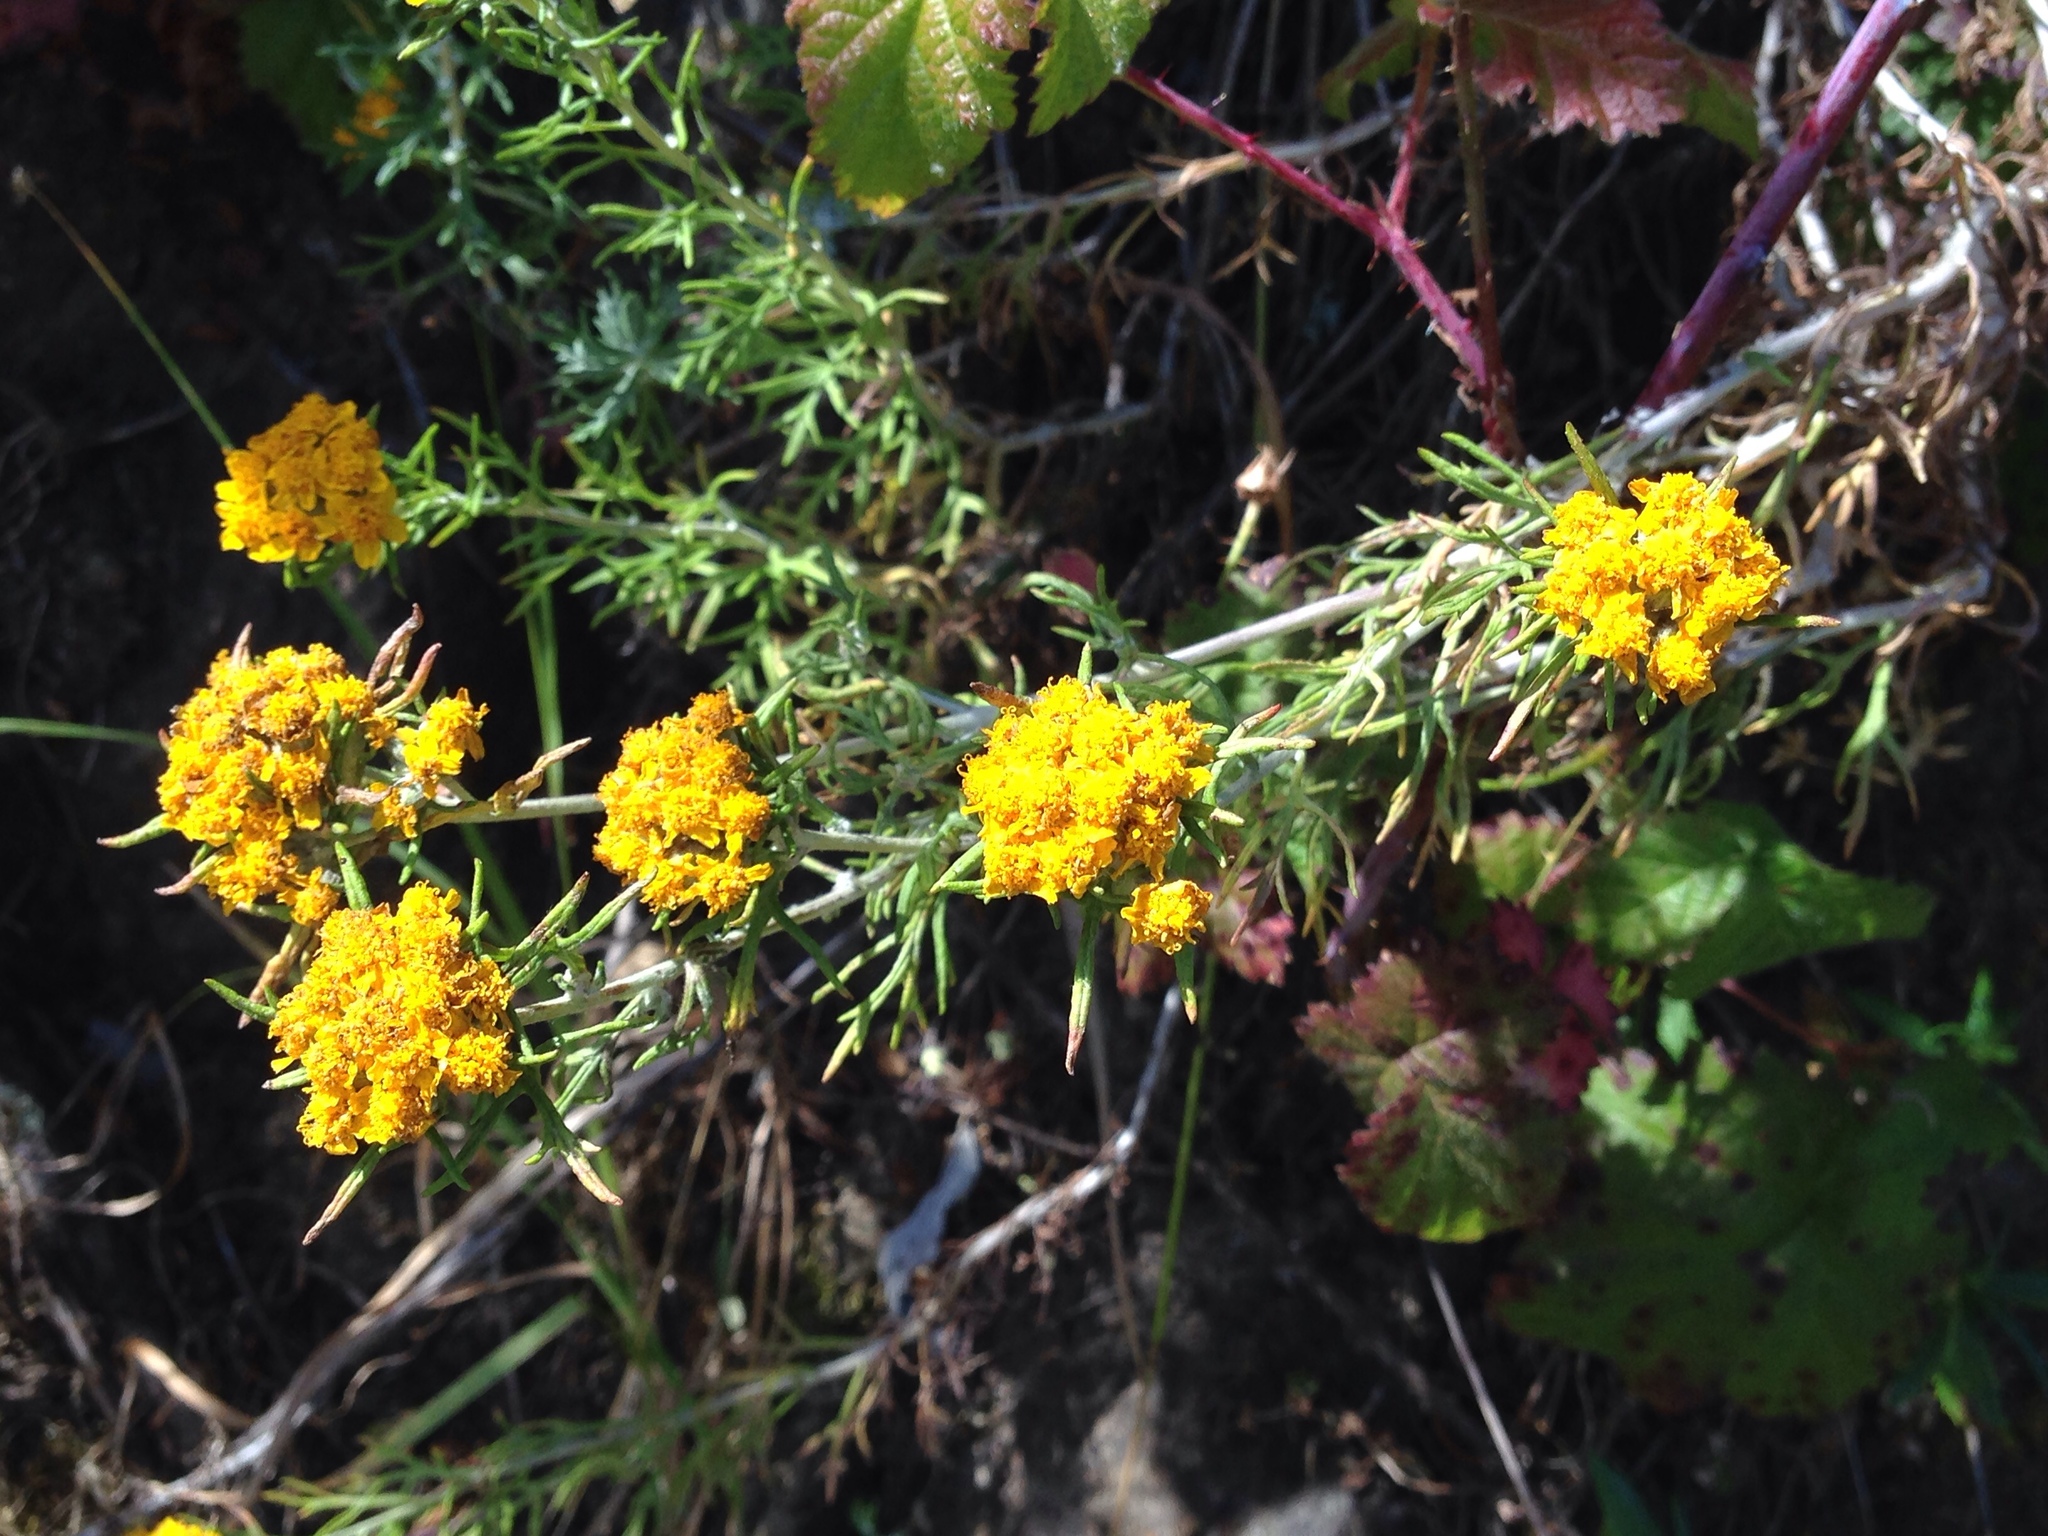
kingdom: Plantae
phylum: Tracheophyta
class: Magnoliopsida
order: Asterales
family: Asteraceae
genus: Eriophyllum
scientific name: Eriophyllum confertiflorum
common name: Golden-yarrow
